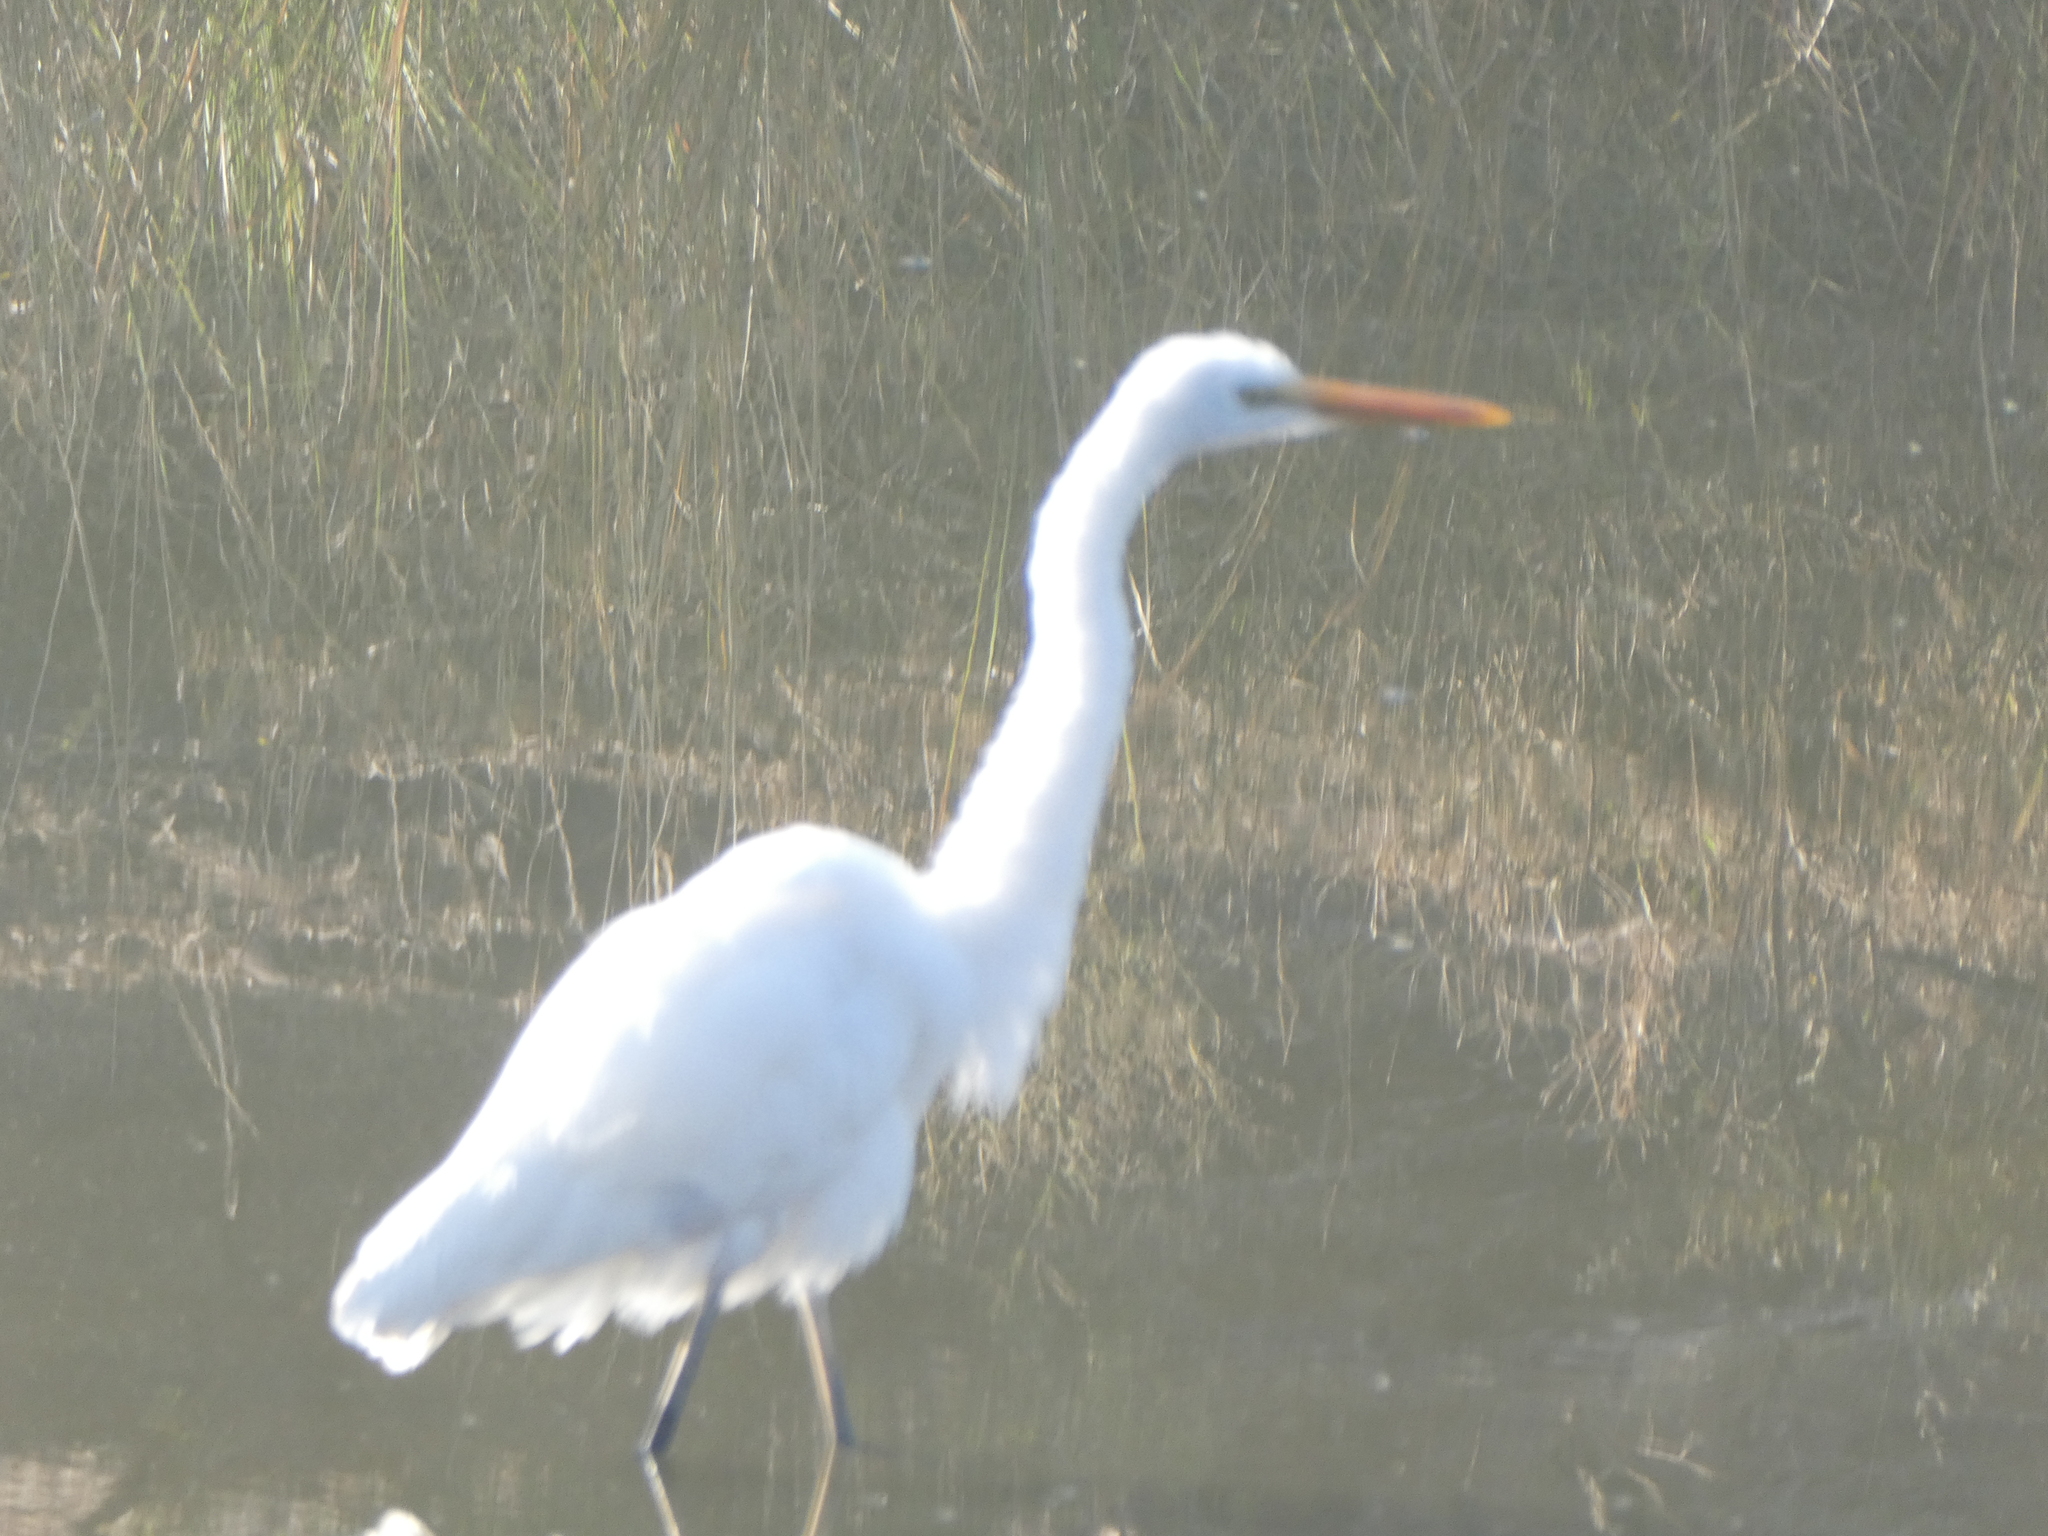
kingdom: Animalia
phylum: Chordata
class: Aves
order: Pelecaniformes
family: Ardeidae
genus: Ardea
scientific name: Ardea alba
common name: Great egret
